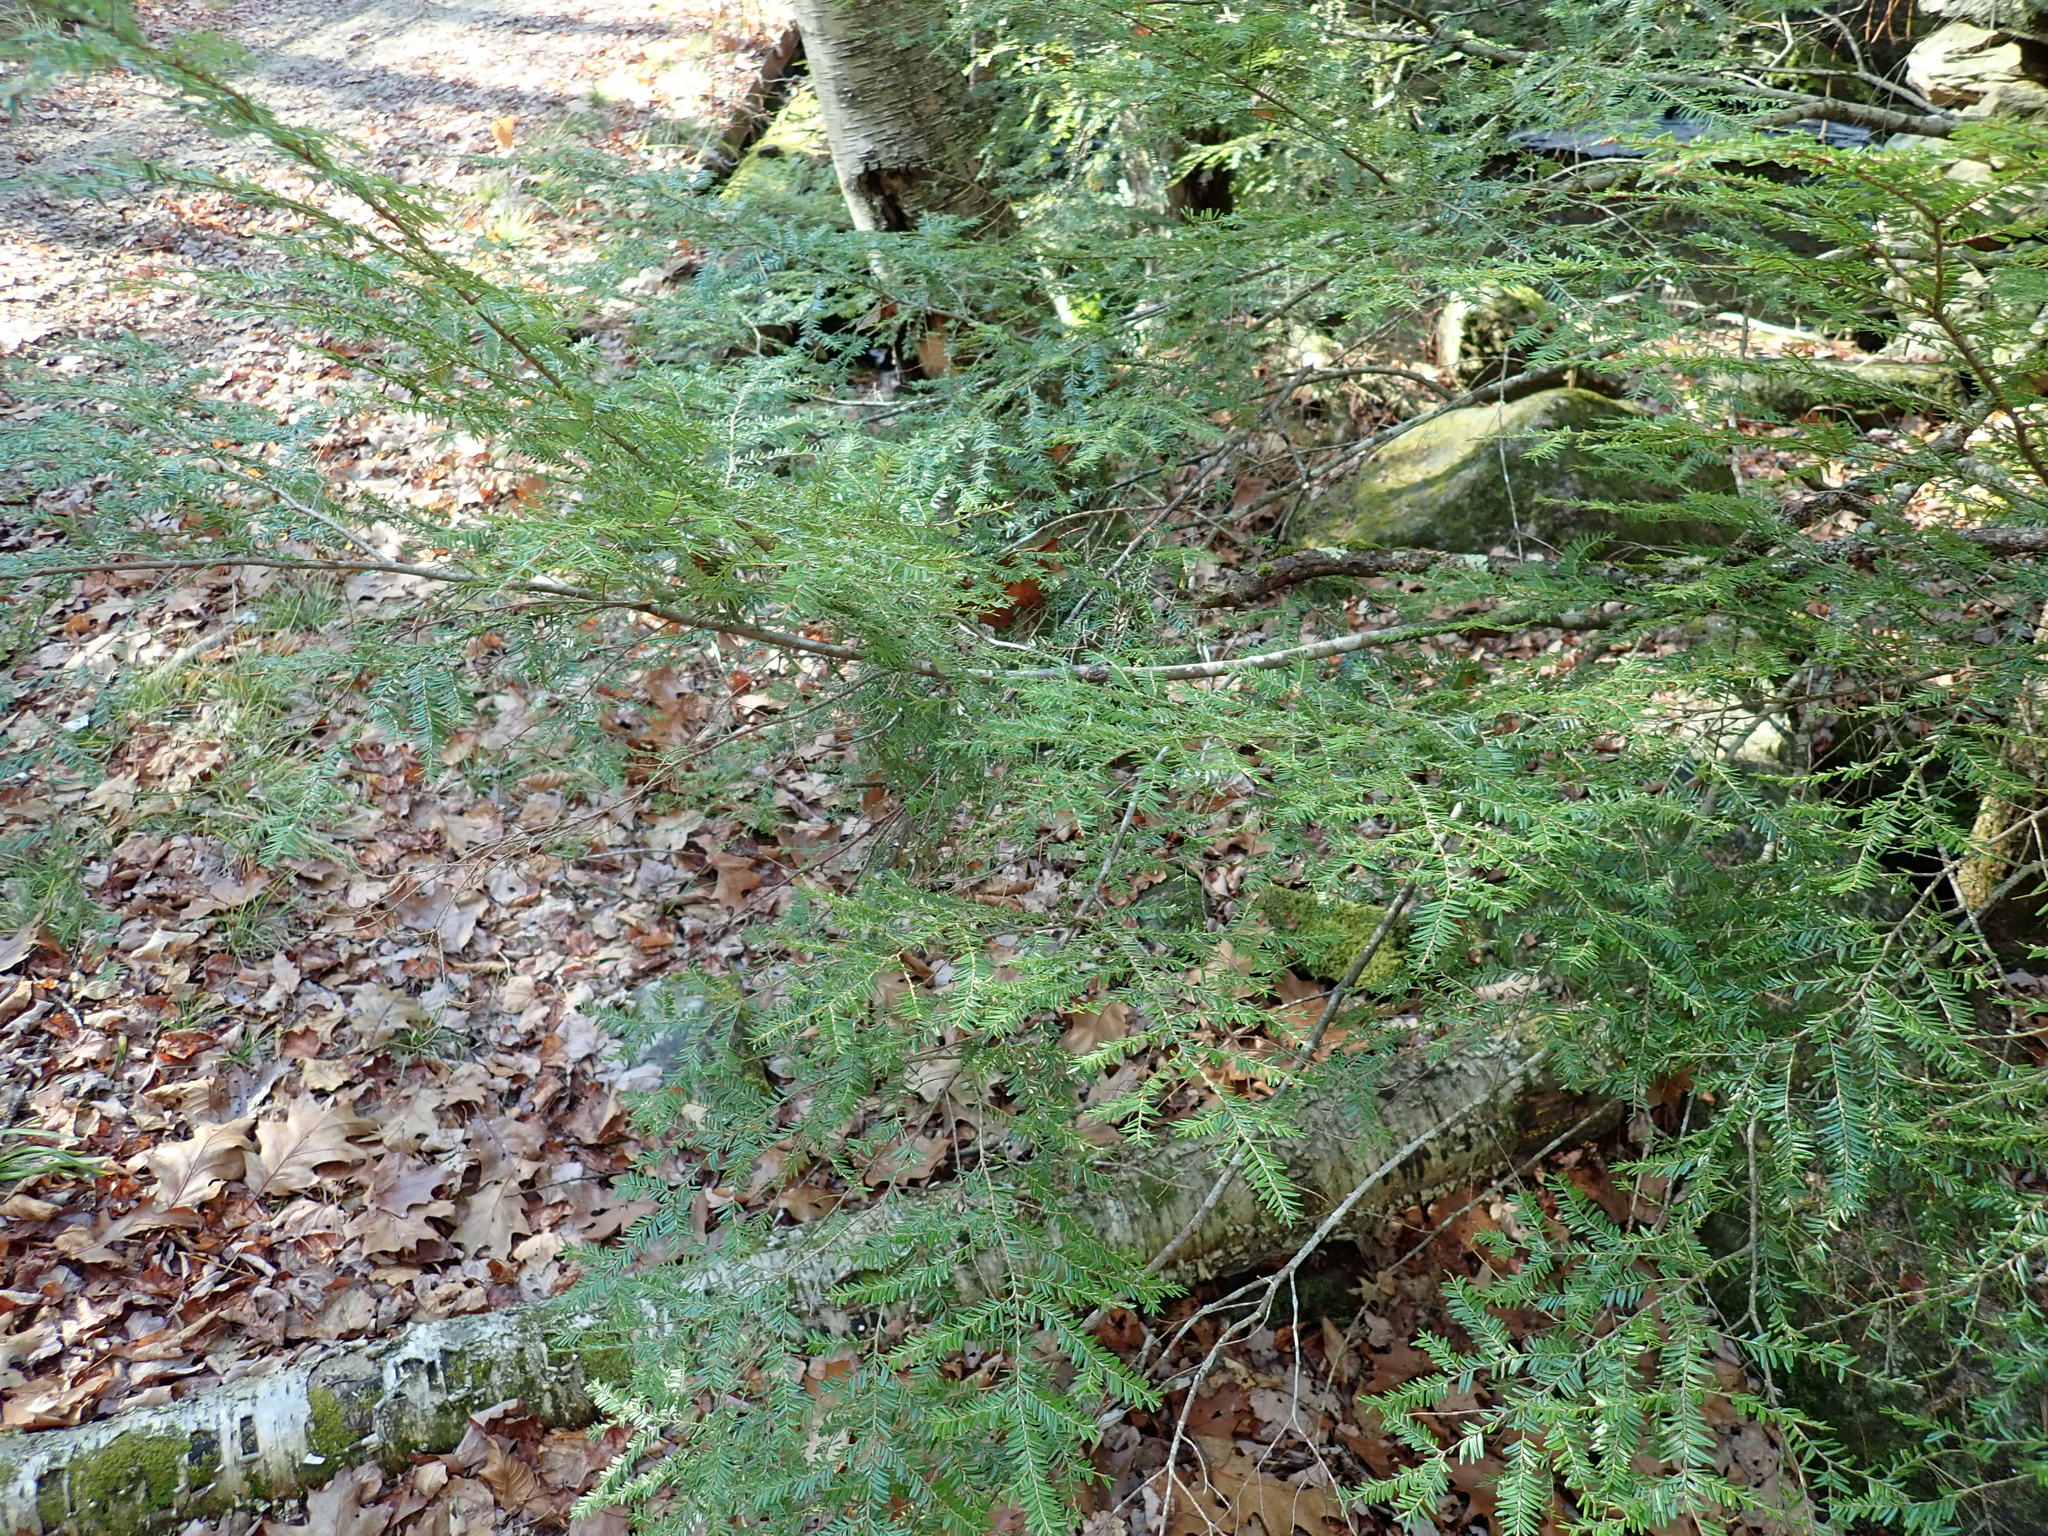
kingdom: Plantae
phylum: Tracheophyta
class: Pinopsida
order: Pinales
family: Pinaceae
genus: Tsuga
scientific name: Tsuga canadensis
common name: Eastern hemlock
